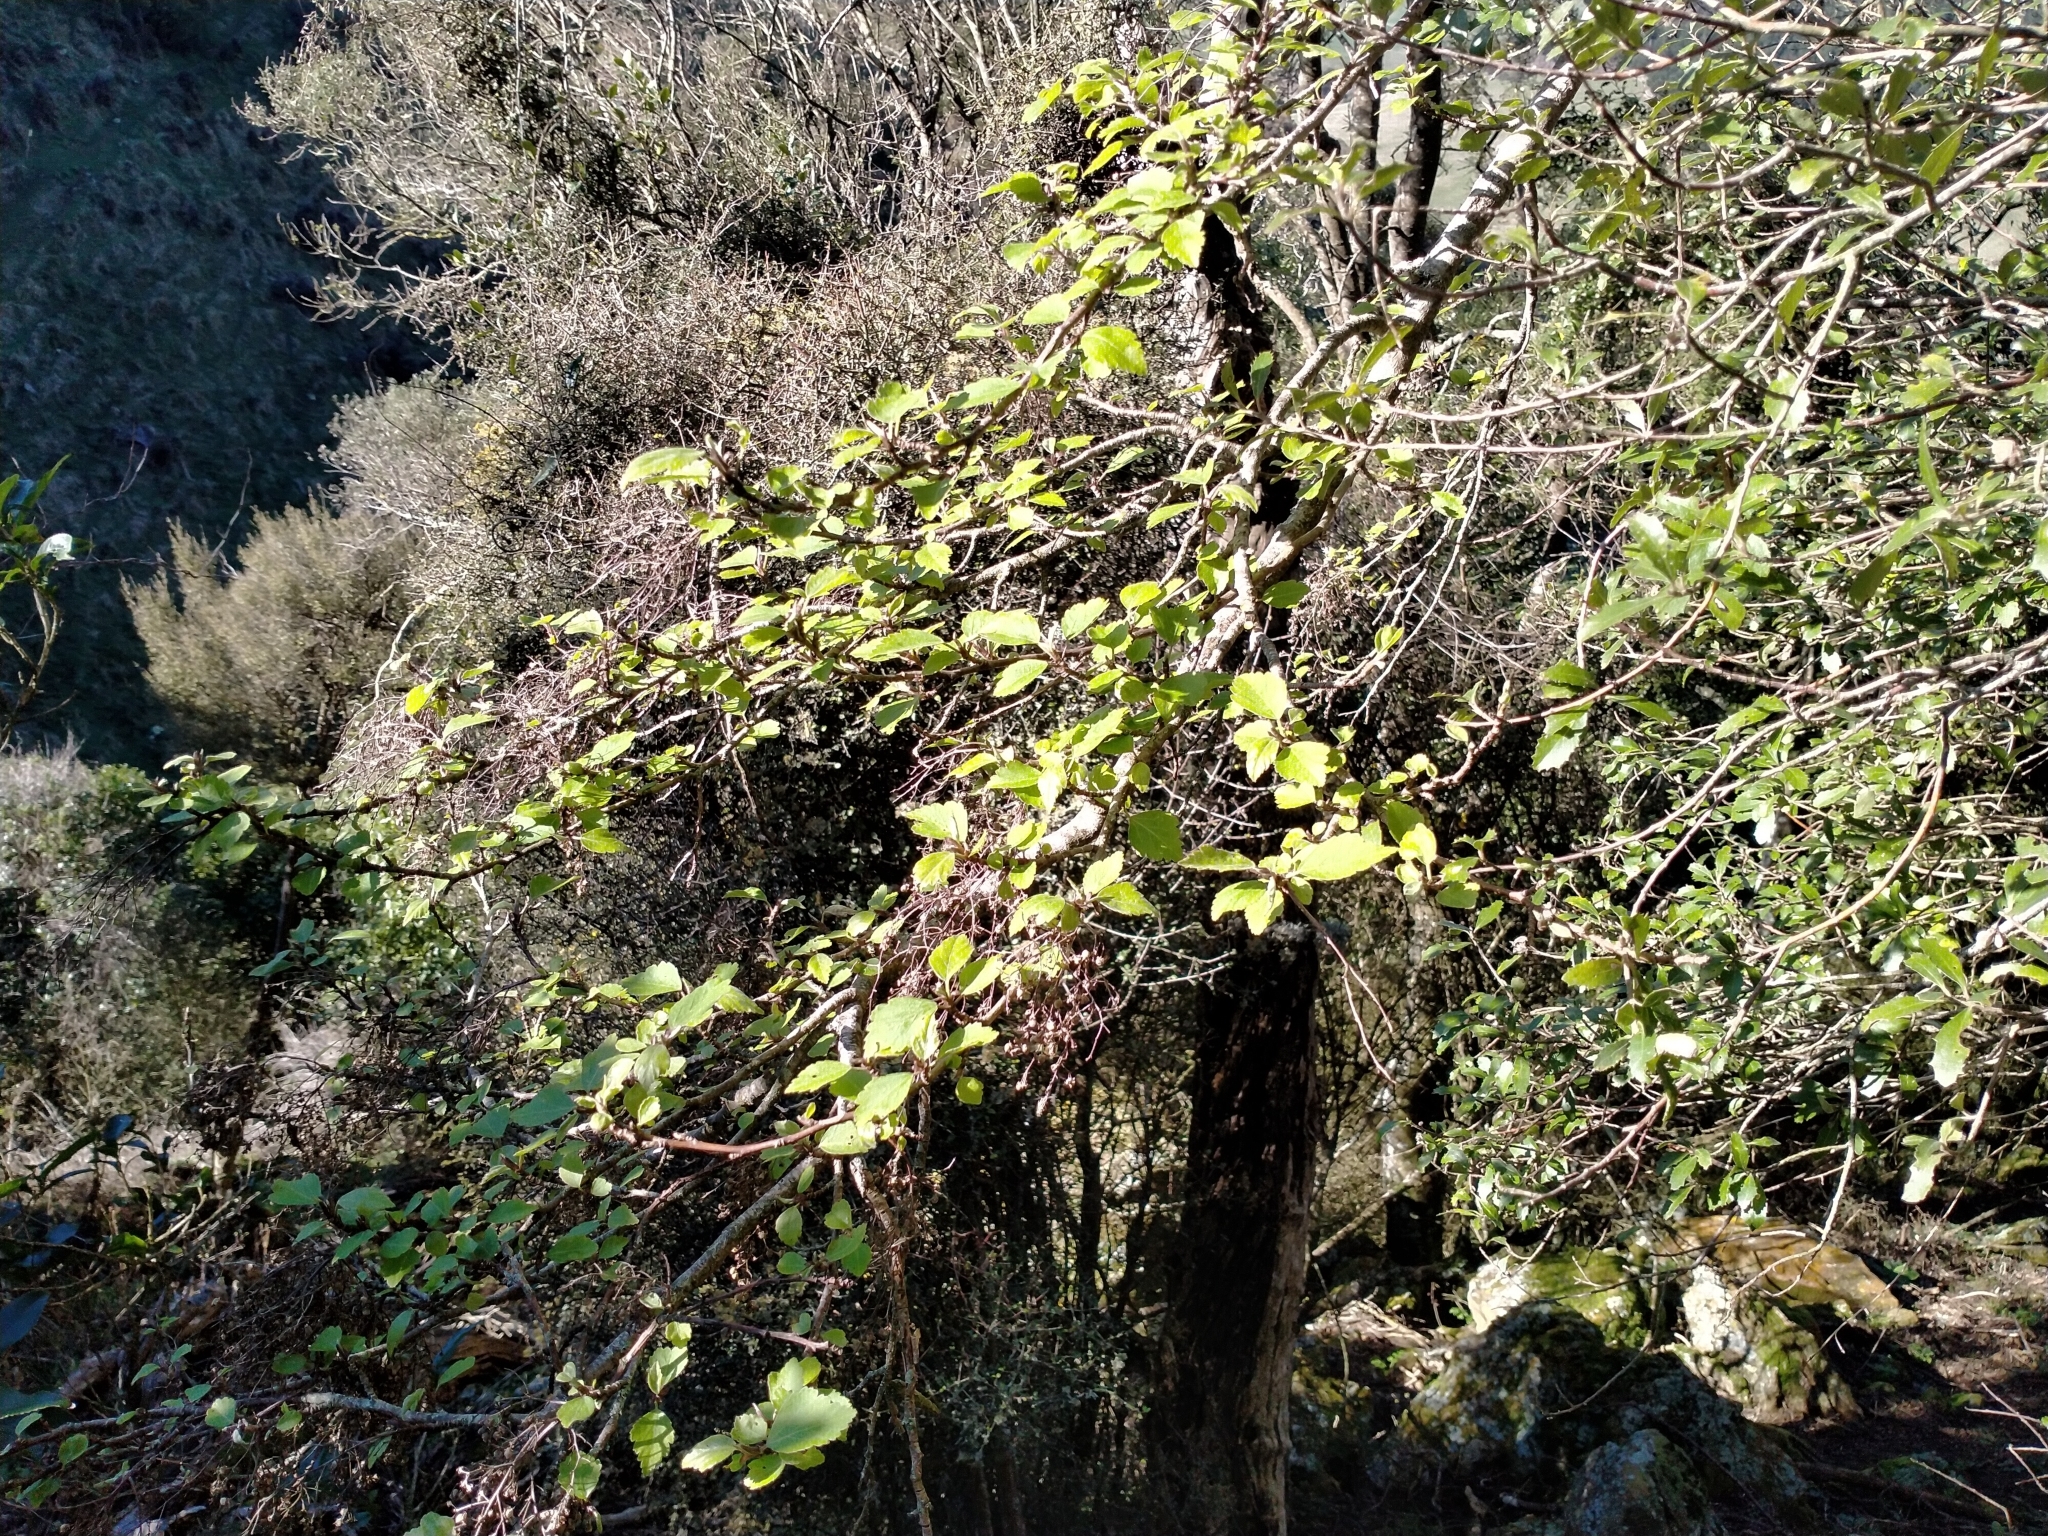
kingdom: Plantae
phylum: Tracheophyta
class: Magnoliopsida
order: Malvales
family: Malvaceae
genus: Plagianthus
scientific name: Plagianthus regius
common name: Manatu
